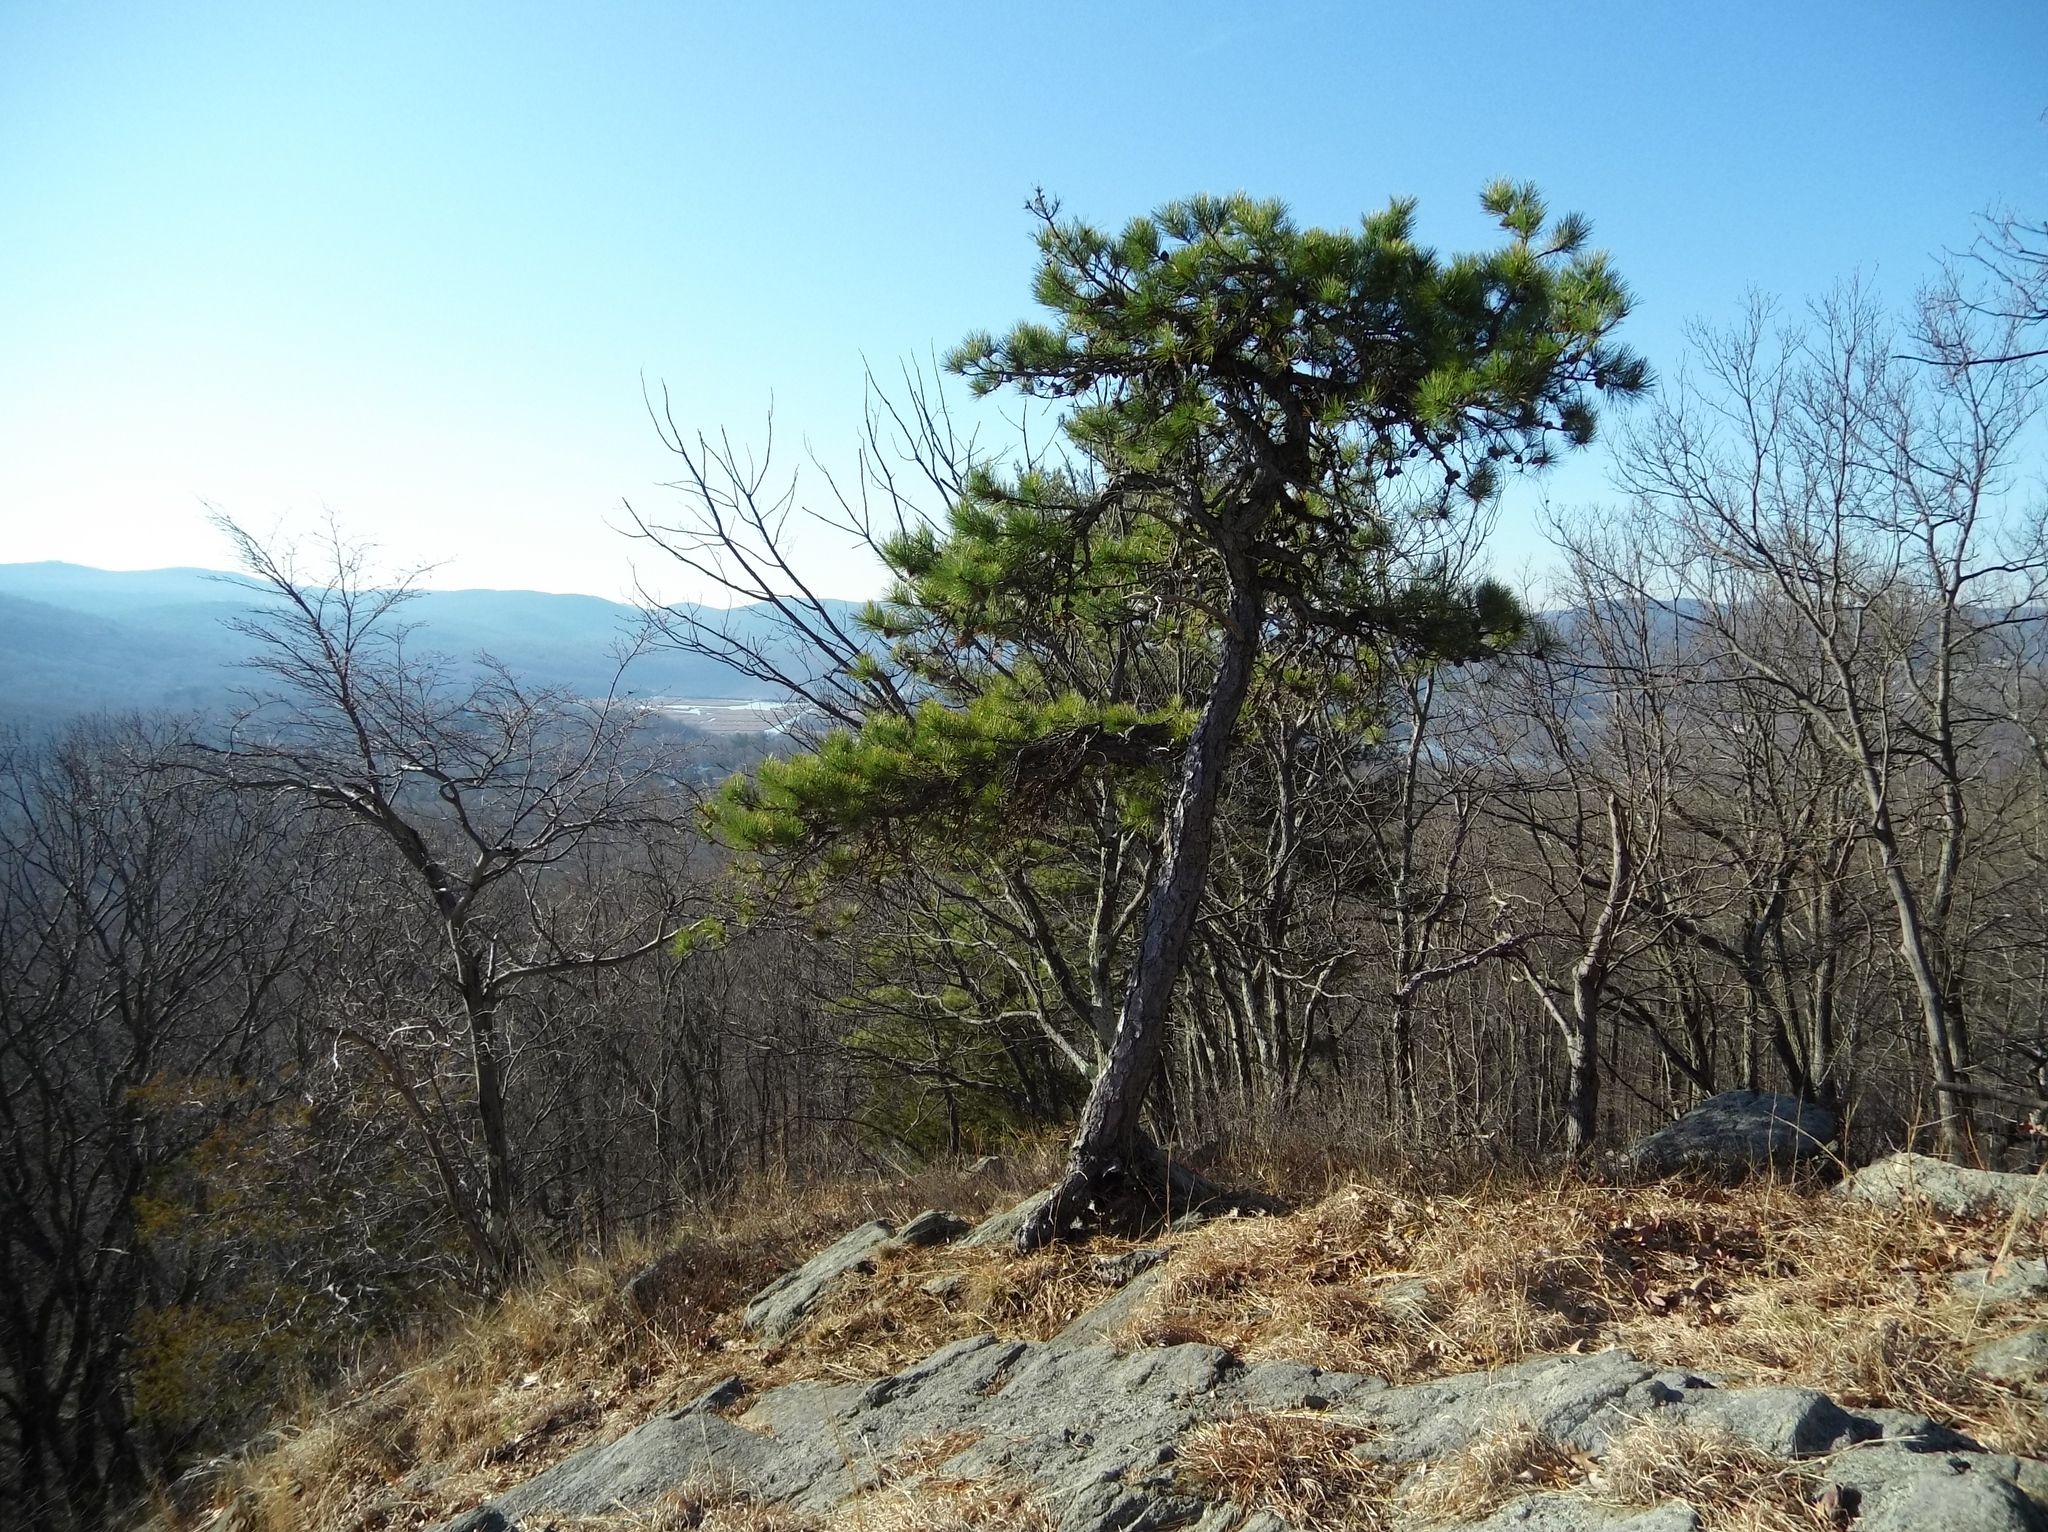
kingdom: Plantae
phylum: Tracheophyta
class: Pinopsida
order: Pinales
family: Pinaceae
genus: Pinus
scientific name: Pinus rigida
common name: Pitch pine
